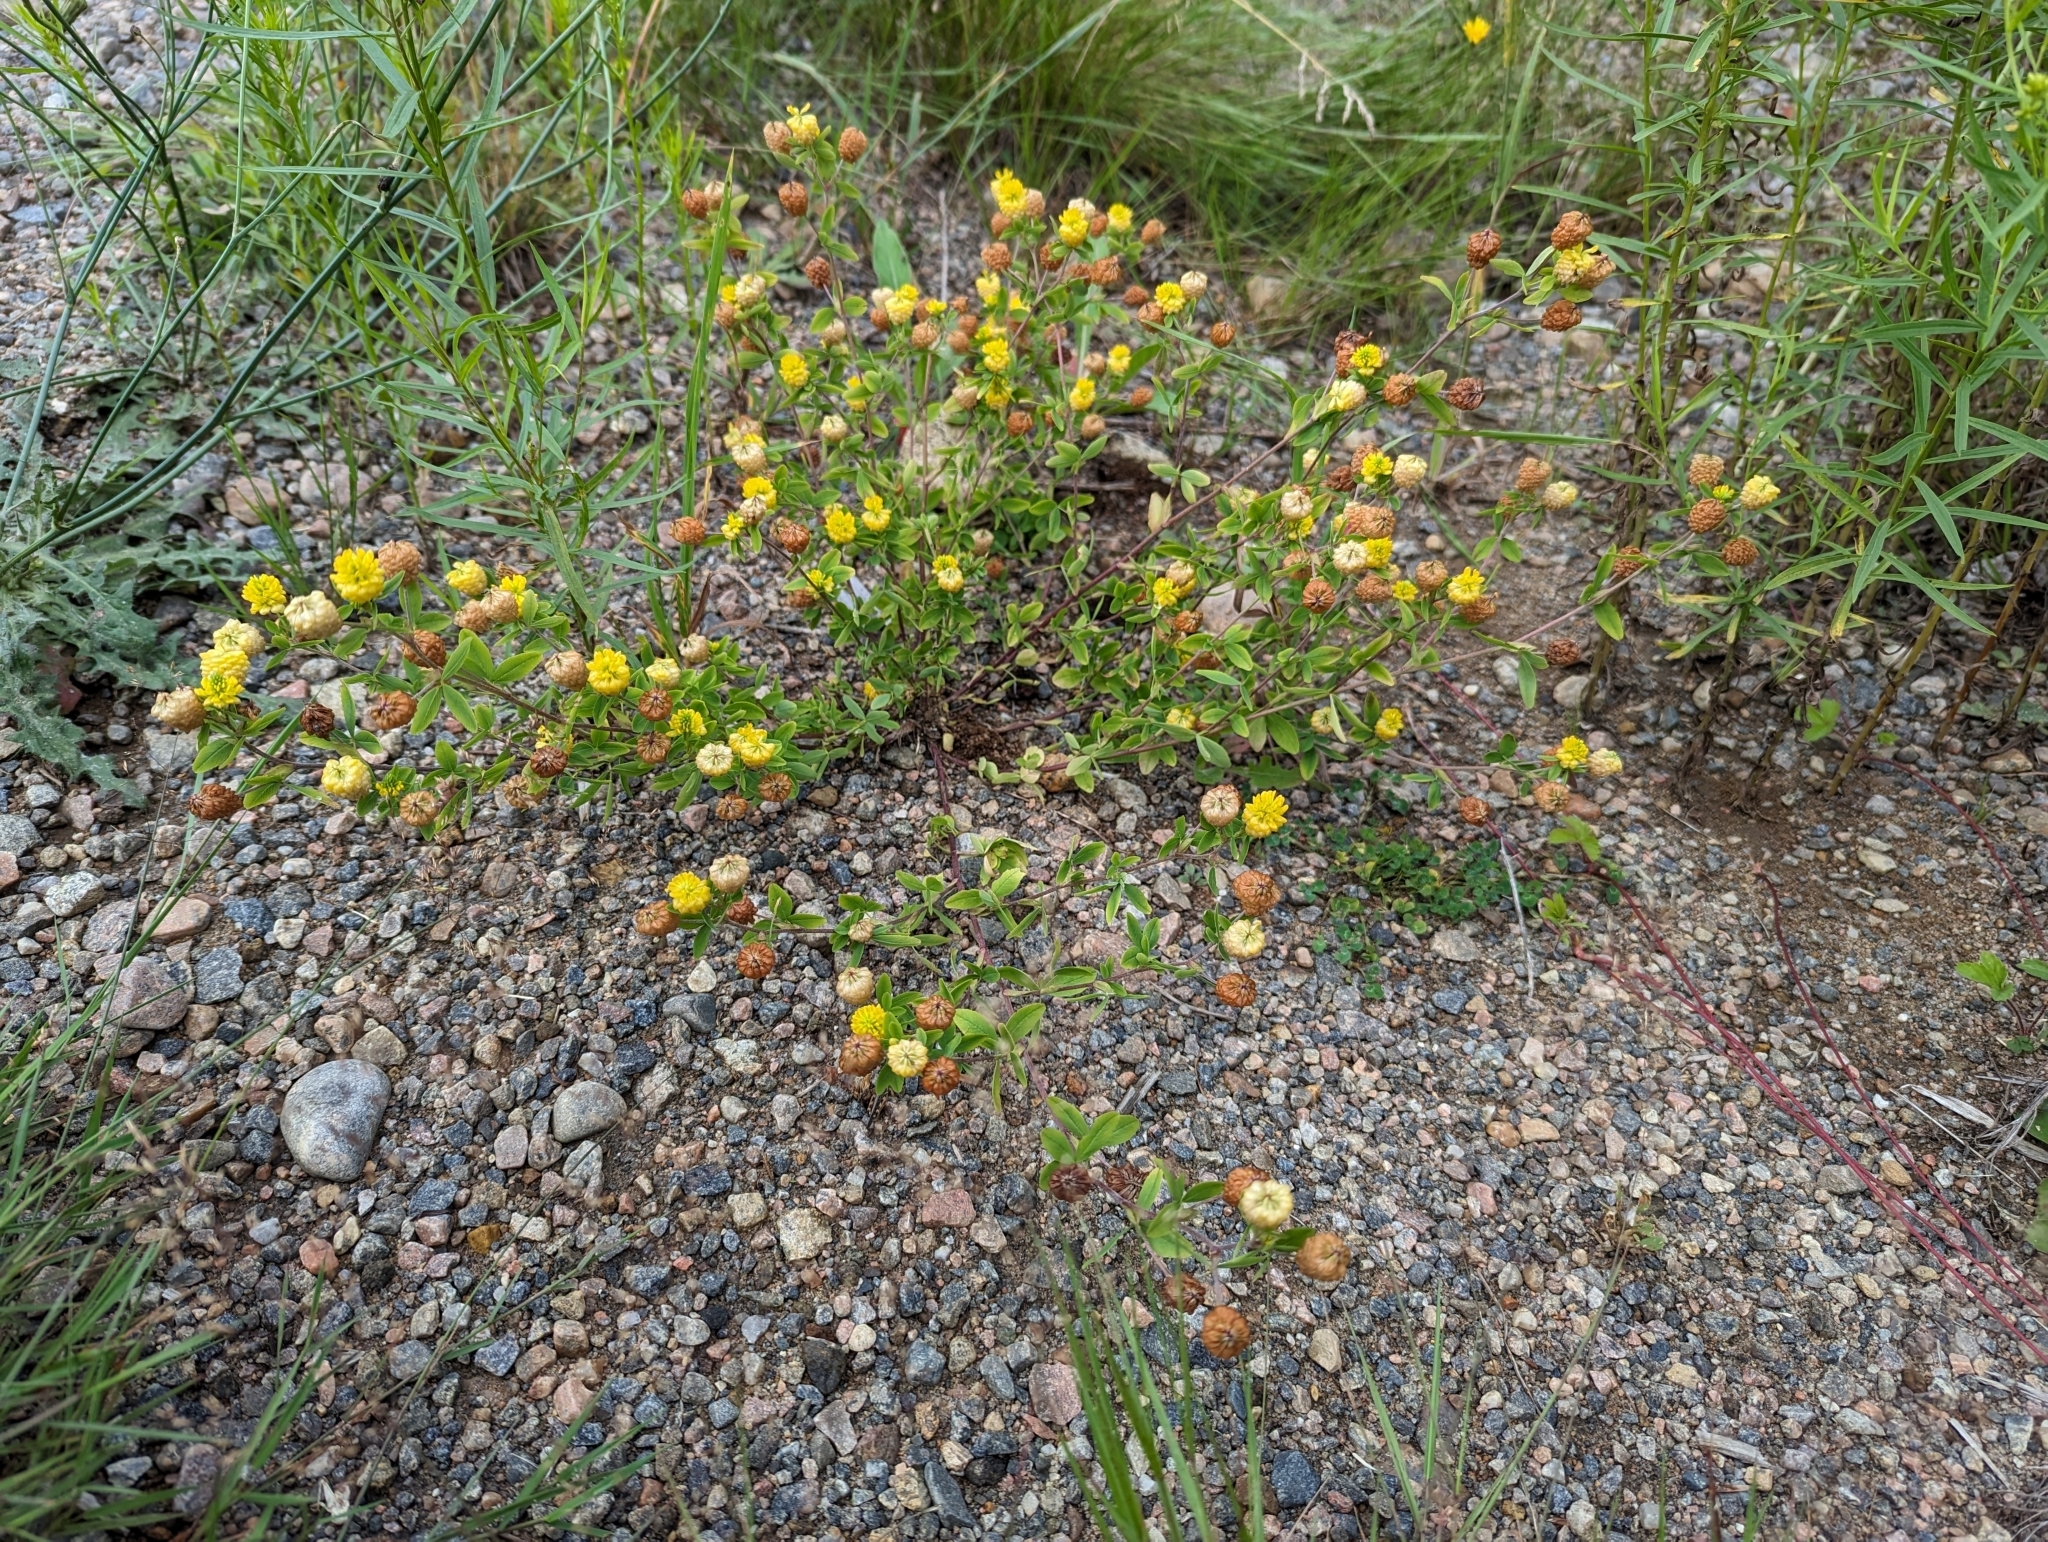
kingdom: Plantae
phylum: Tracheophyta
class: Magnoliopsida
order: Fabales
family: Fabaceae
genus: Trifolium
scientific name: Trifolium aureum
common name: Golden clover
